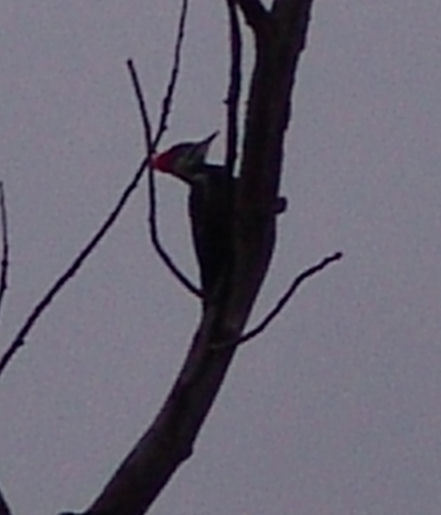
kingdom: Animalia
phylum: Chordata
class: Aves
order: Piciformes
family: Picidae
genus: Dryocopus
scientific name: Dryocopus pileatus
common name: Pileated woodpecker
